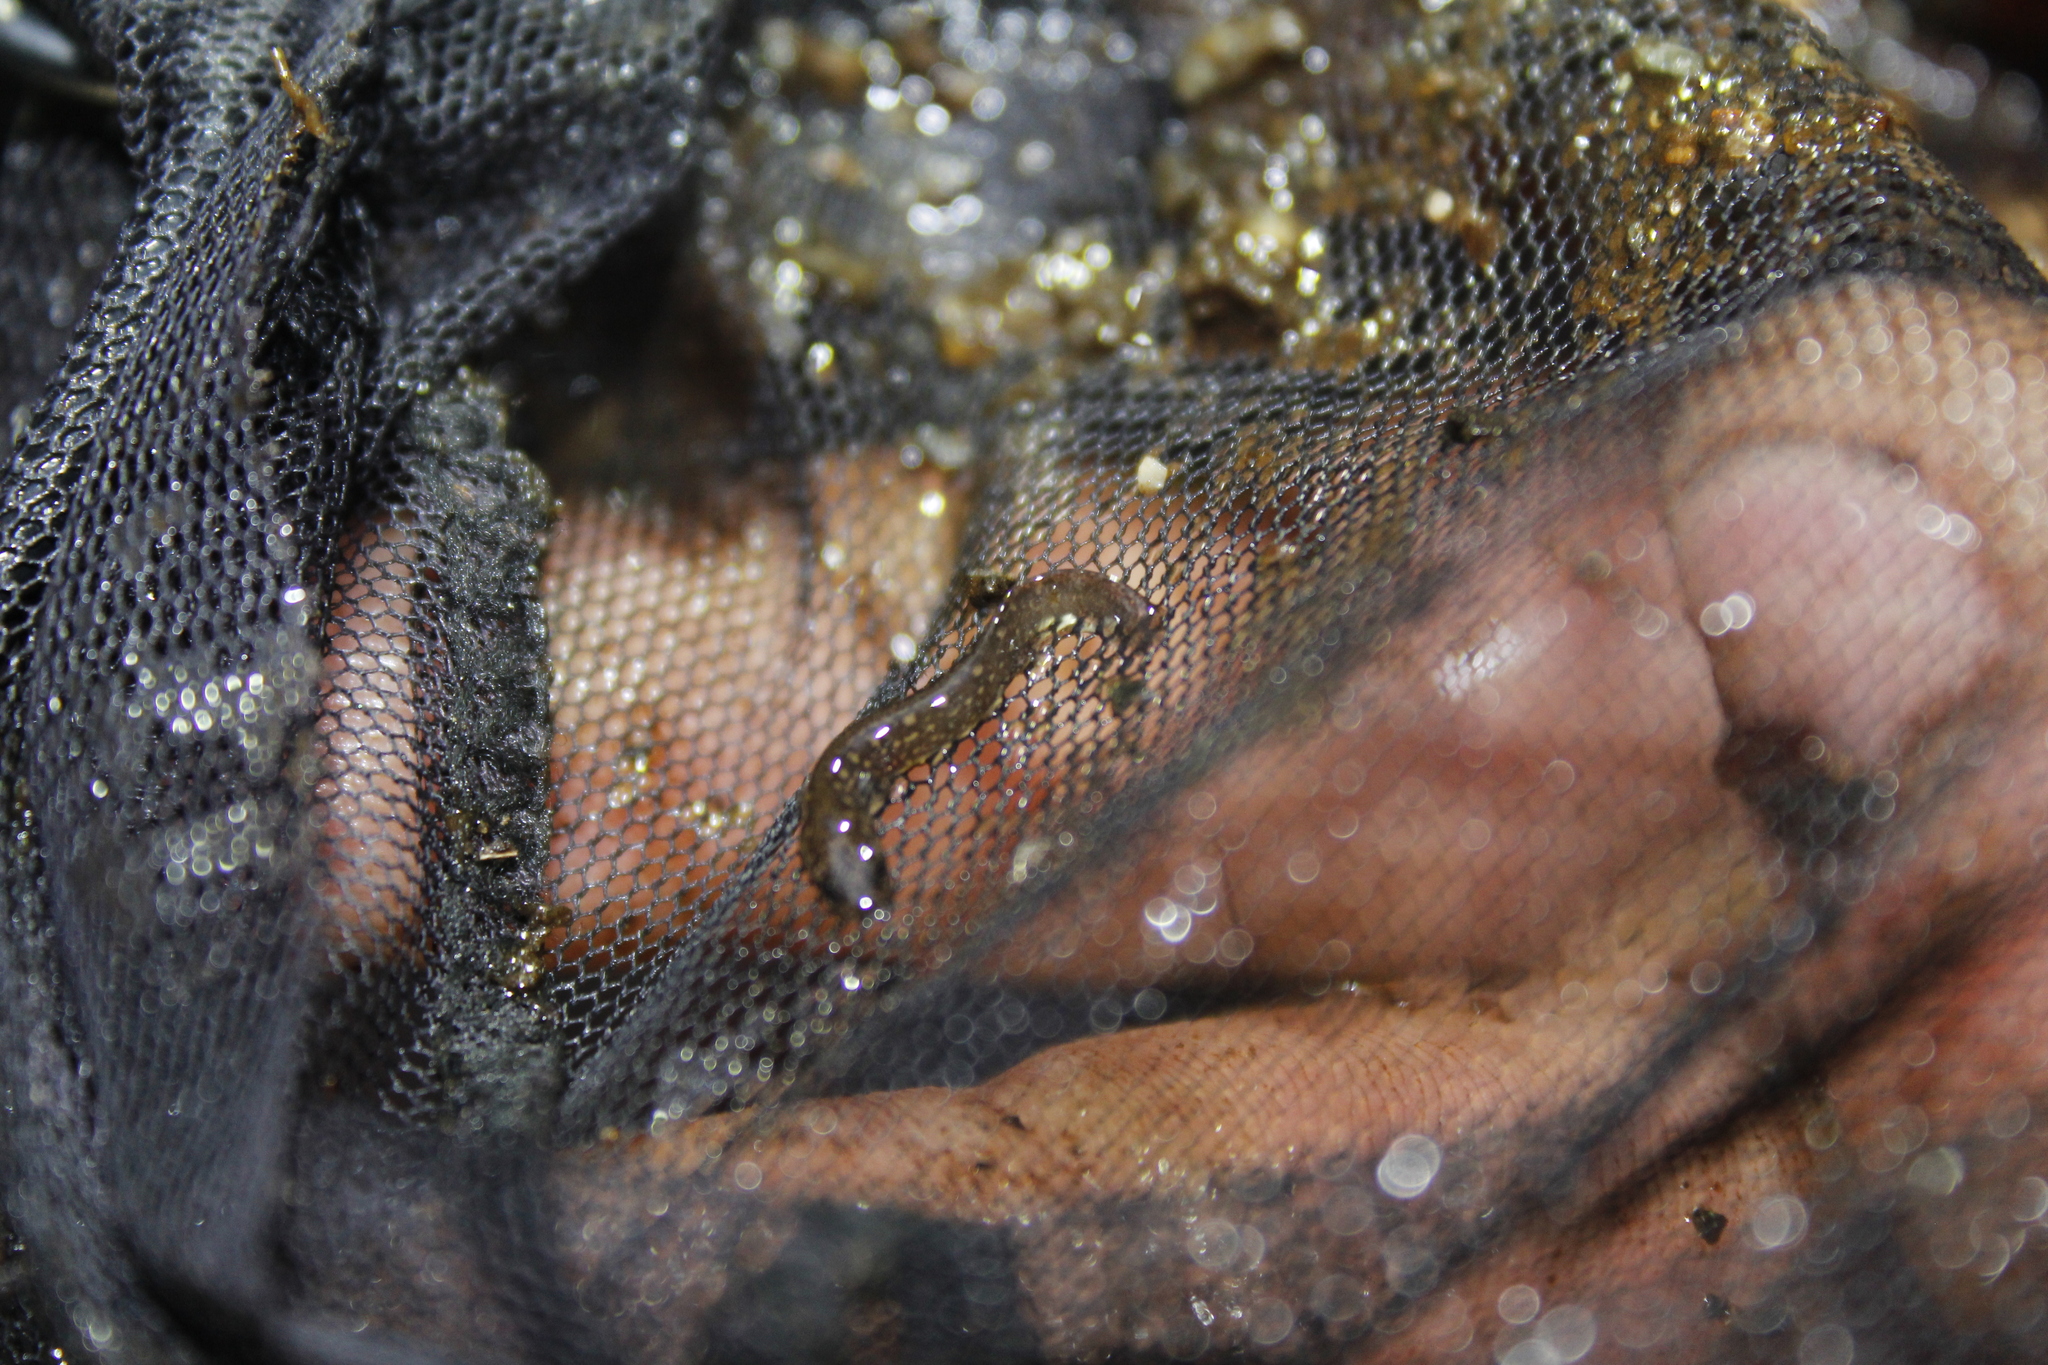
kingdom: Animalia
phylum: Chordata
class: Amphibia
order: Caudata
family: Plethodontidae
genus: Eurycea
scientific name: Eurycea bislineata
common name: Northern two-lined salamander
